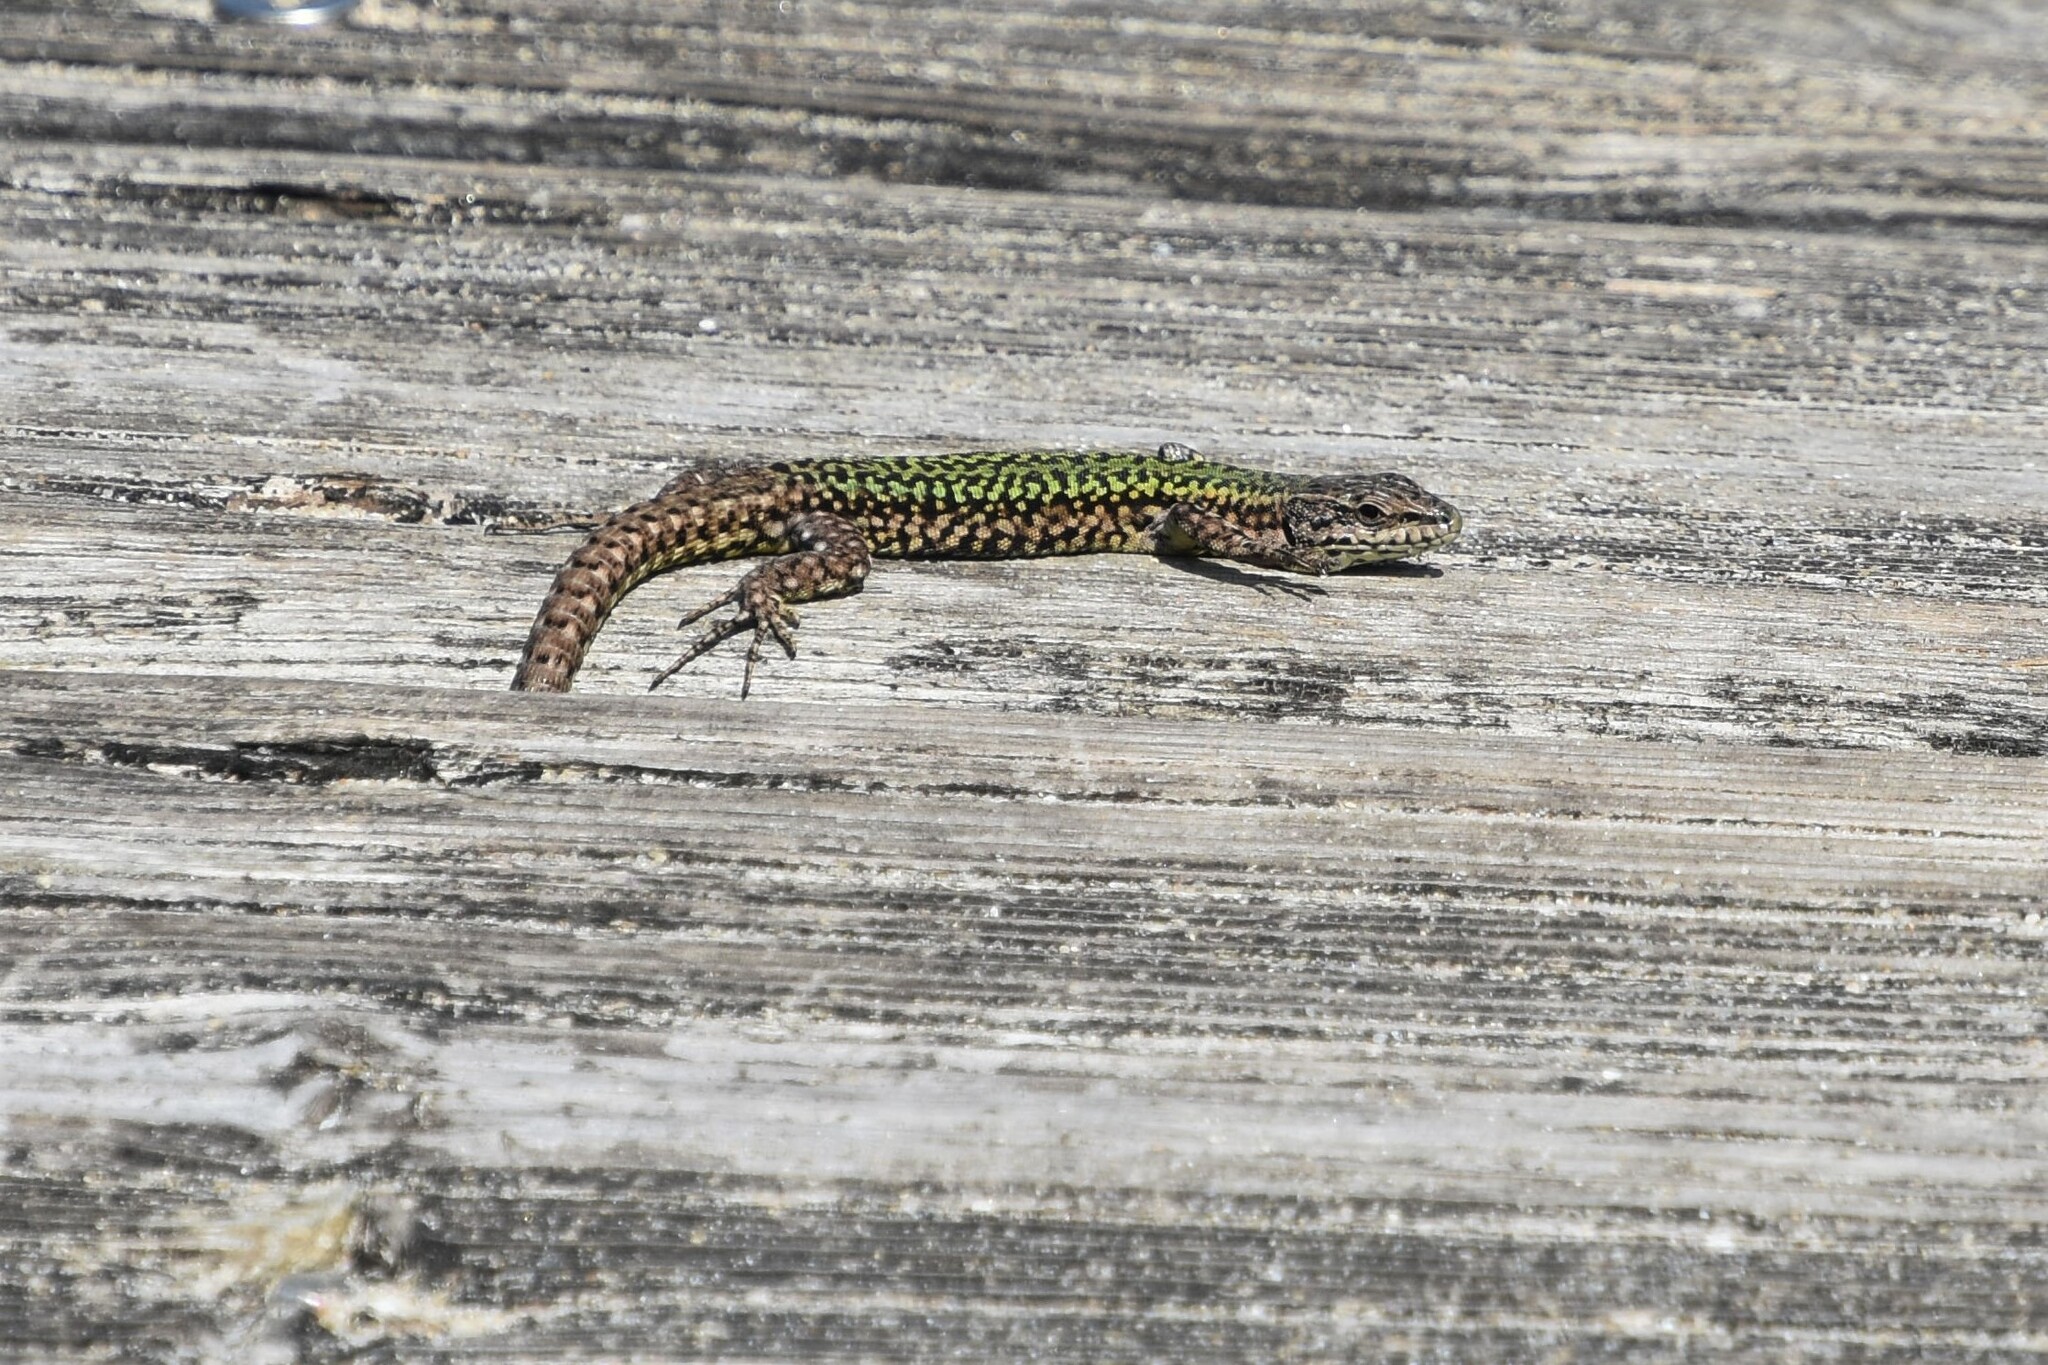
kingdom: Animalia
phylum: Chordata
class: Squamata
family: Lacertidae
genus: Podarcis
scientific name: Podarcis bocagei
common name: Bocage's wall lizard
